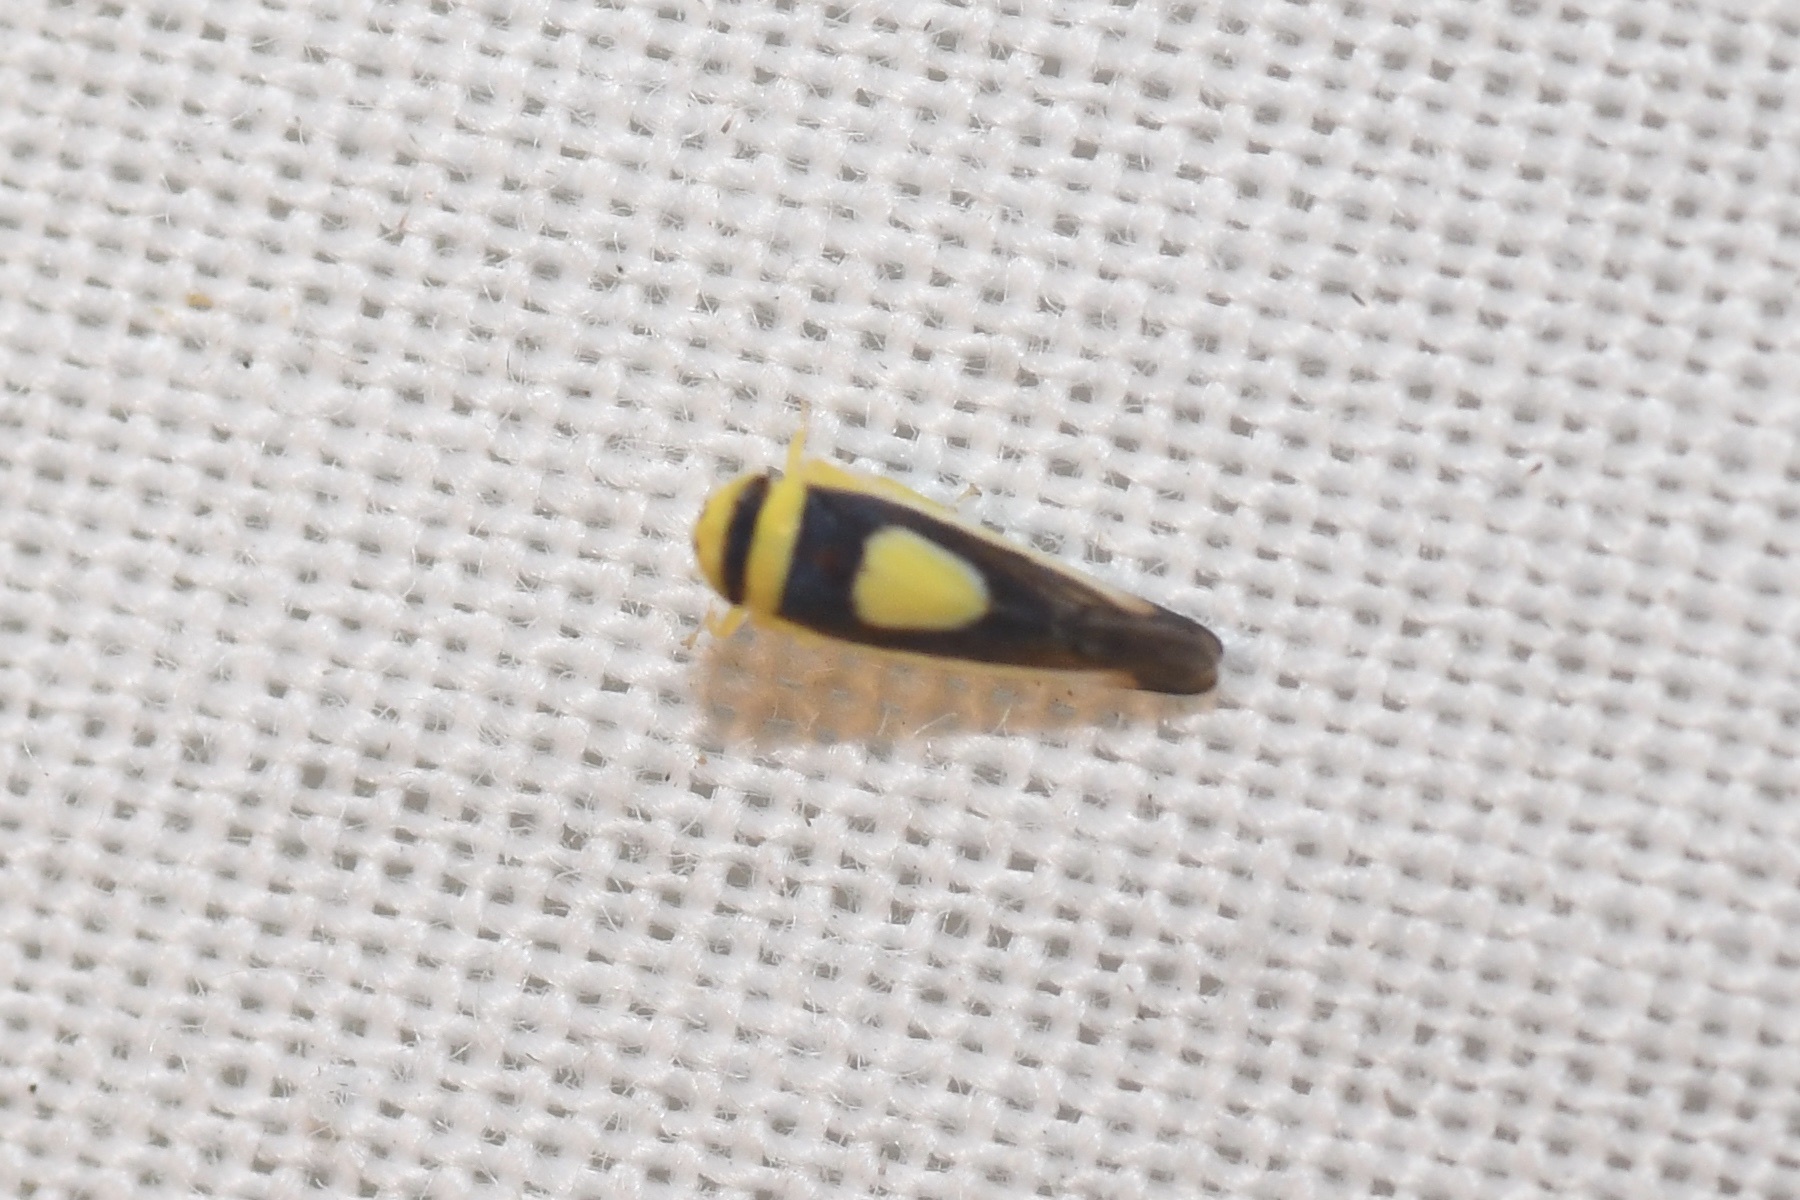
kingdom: Animalia
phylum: Arthropoda
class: Insecta
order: Hemiptera
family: Cicadellidae
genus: Colladonus
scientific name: Colladonus clitellarius
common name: The saddleback leafhopper
